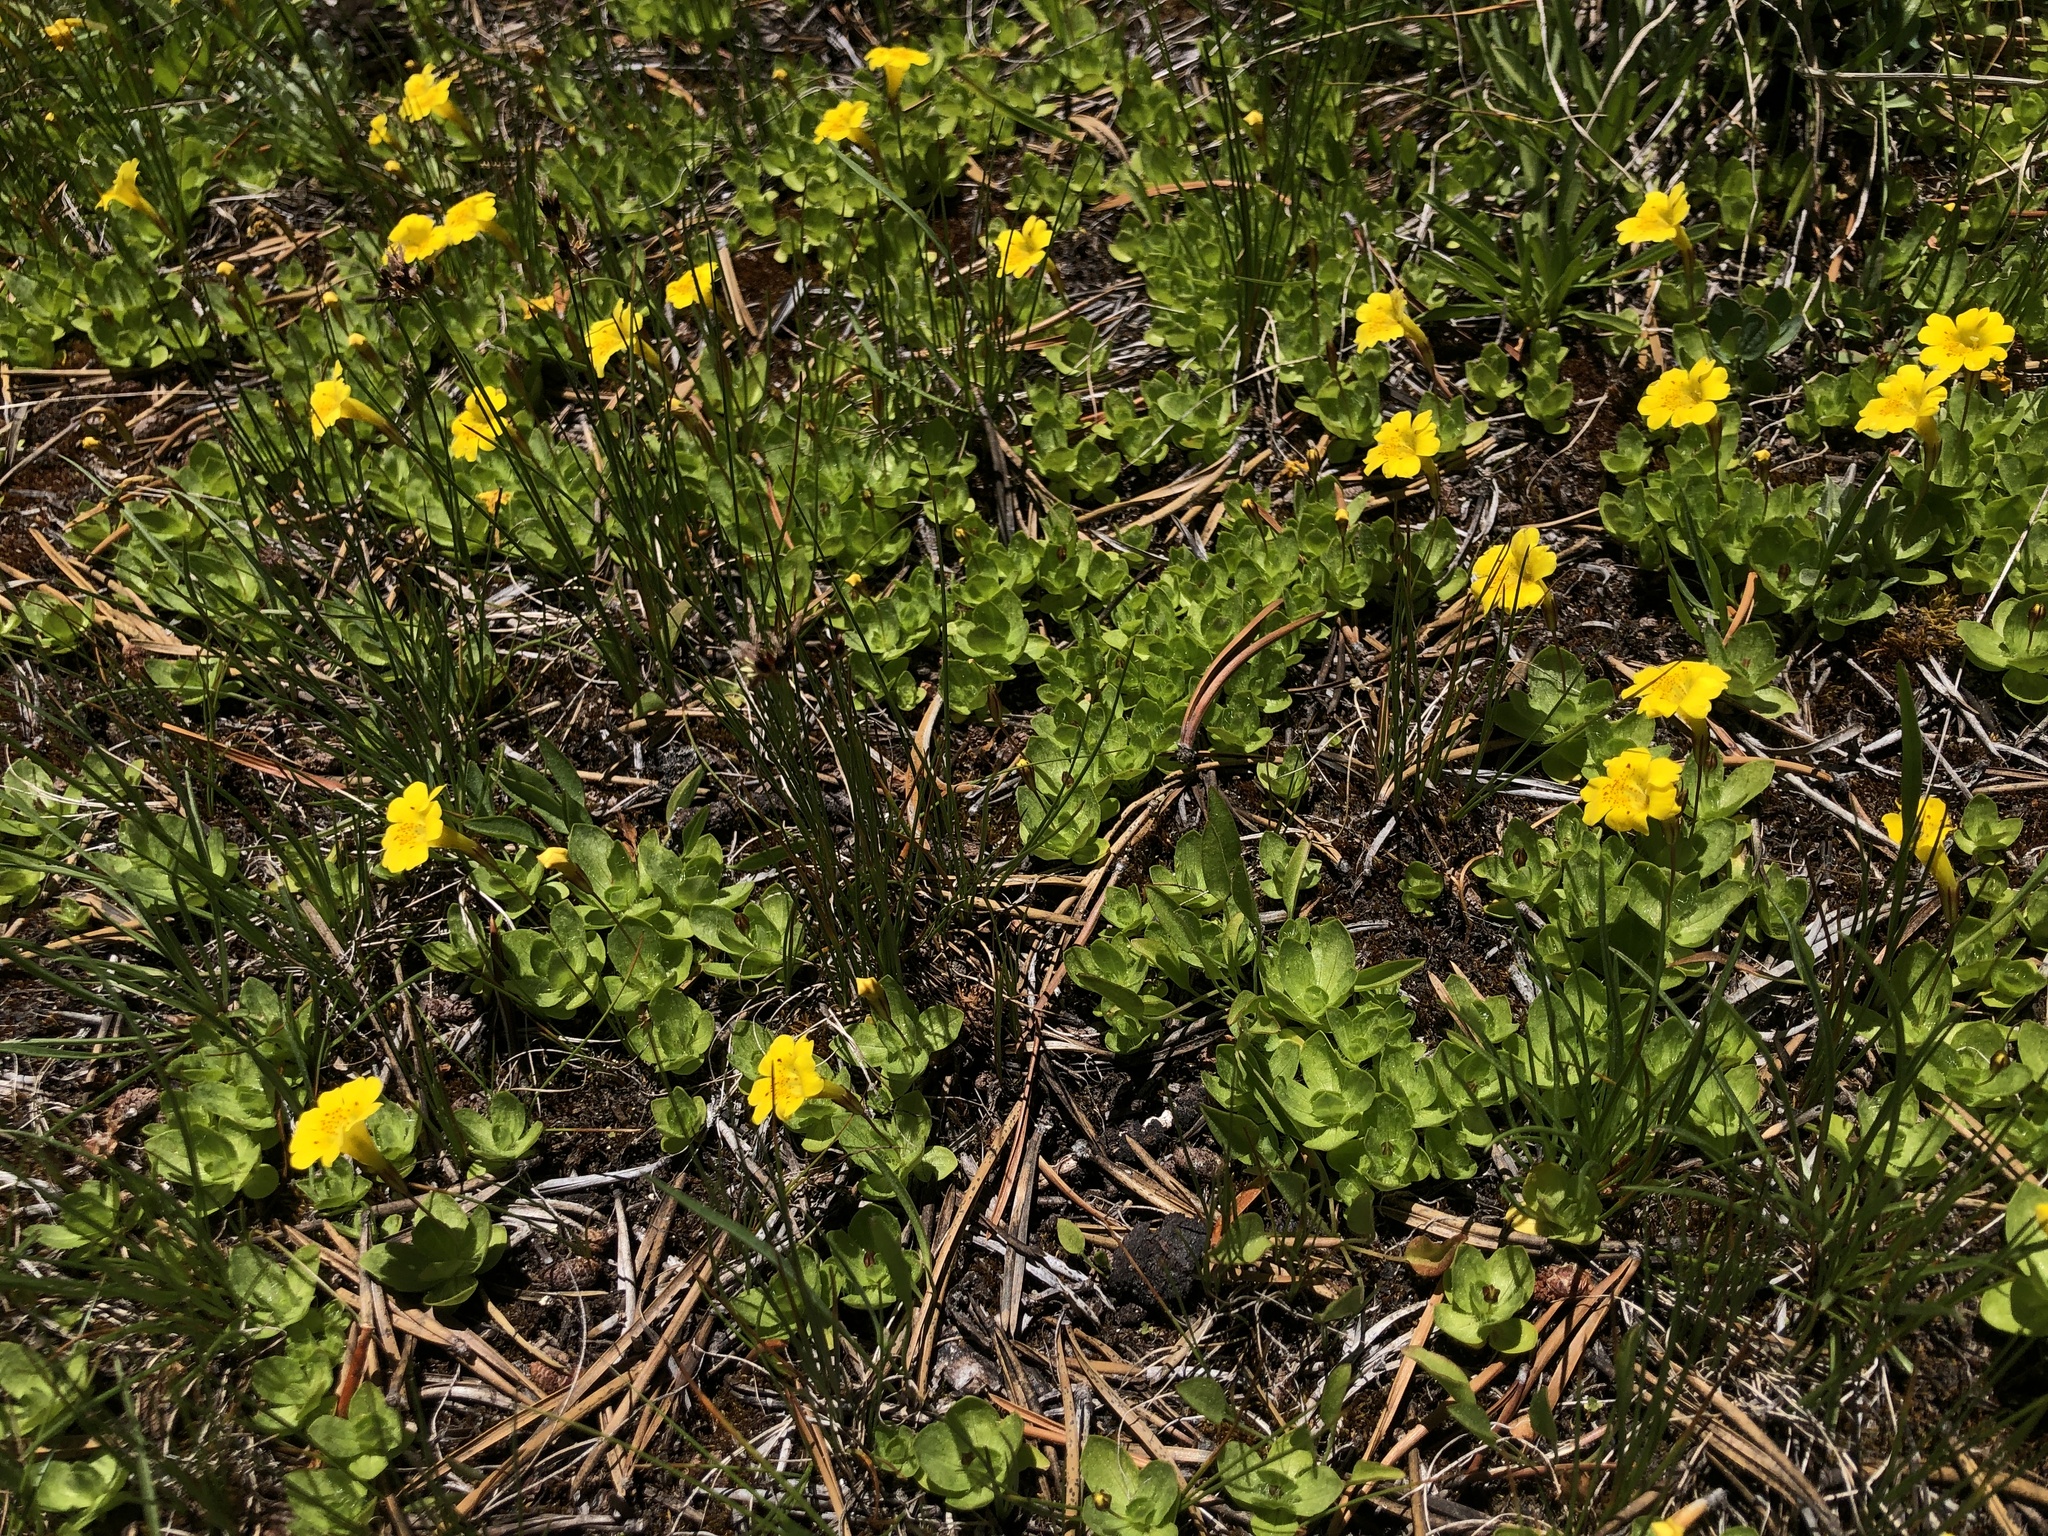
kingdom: Plantae
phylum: Tracheophyta
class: Magnoliopsida
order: Lamiales
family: Phrymaceae
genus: Erythranthe
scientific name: Erythranthe primuloides
